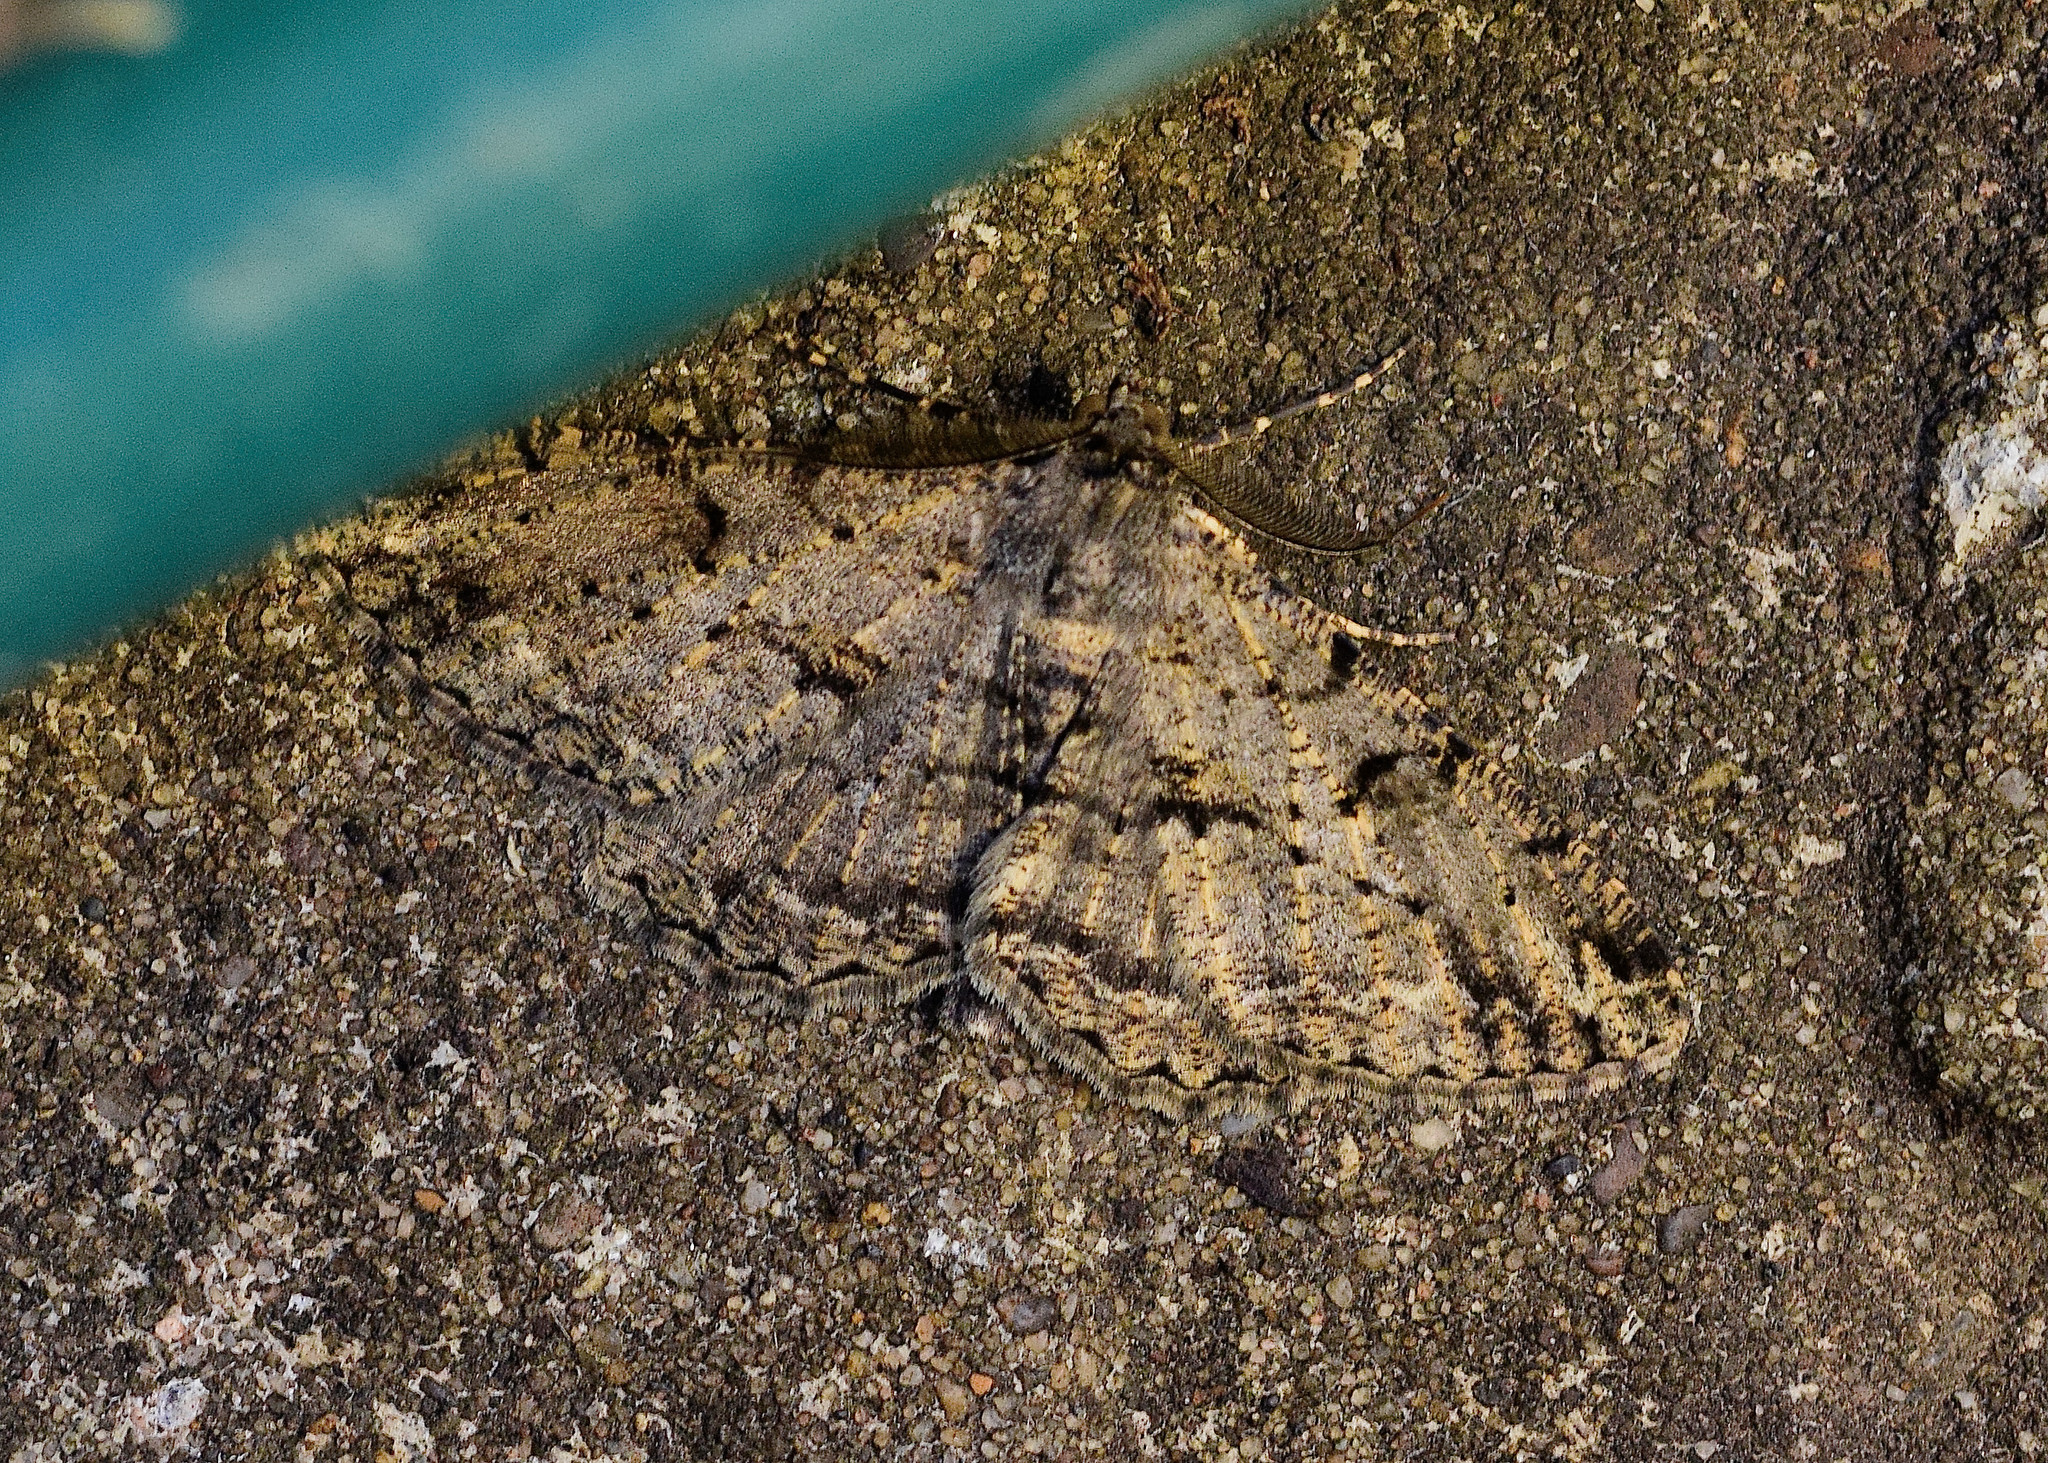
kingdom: Animalia
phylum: Arthropoda
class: Insecta
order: Lepidoptera
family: Geometridae
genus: Peribatodes
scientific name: Peribatodes rhomboidaria
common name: Willow beauty
